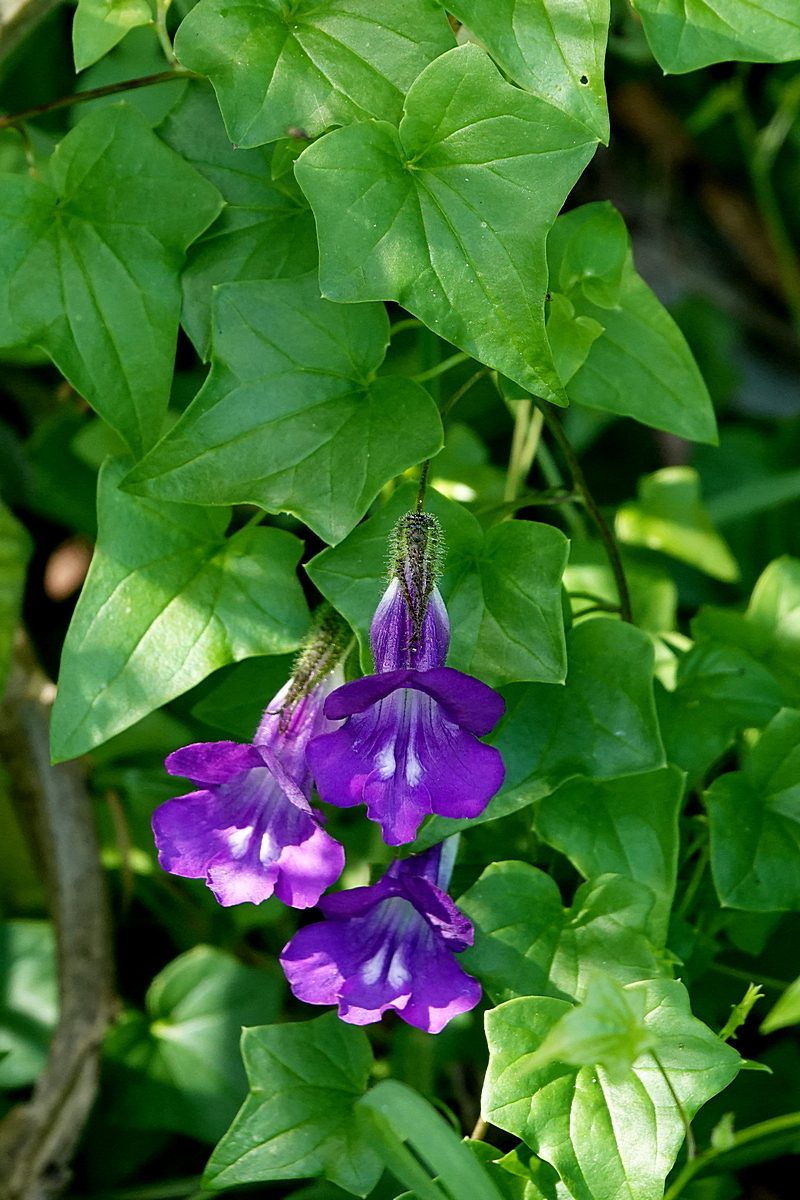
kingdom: Plantae
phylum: Tracheophyta
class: Magnoliopsida
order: Lamiales
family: Plantaginaceae
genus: Maurandya
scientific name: Maurandya barclayana
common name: Mexican viper
